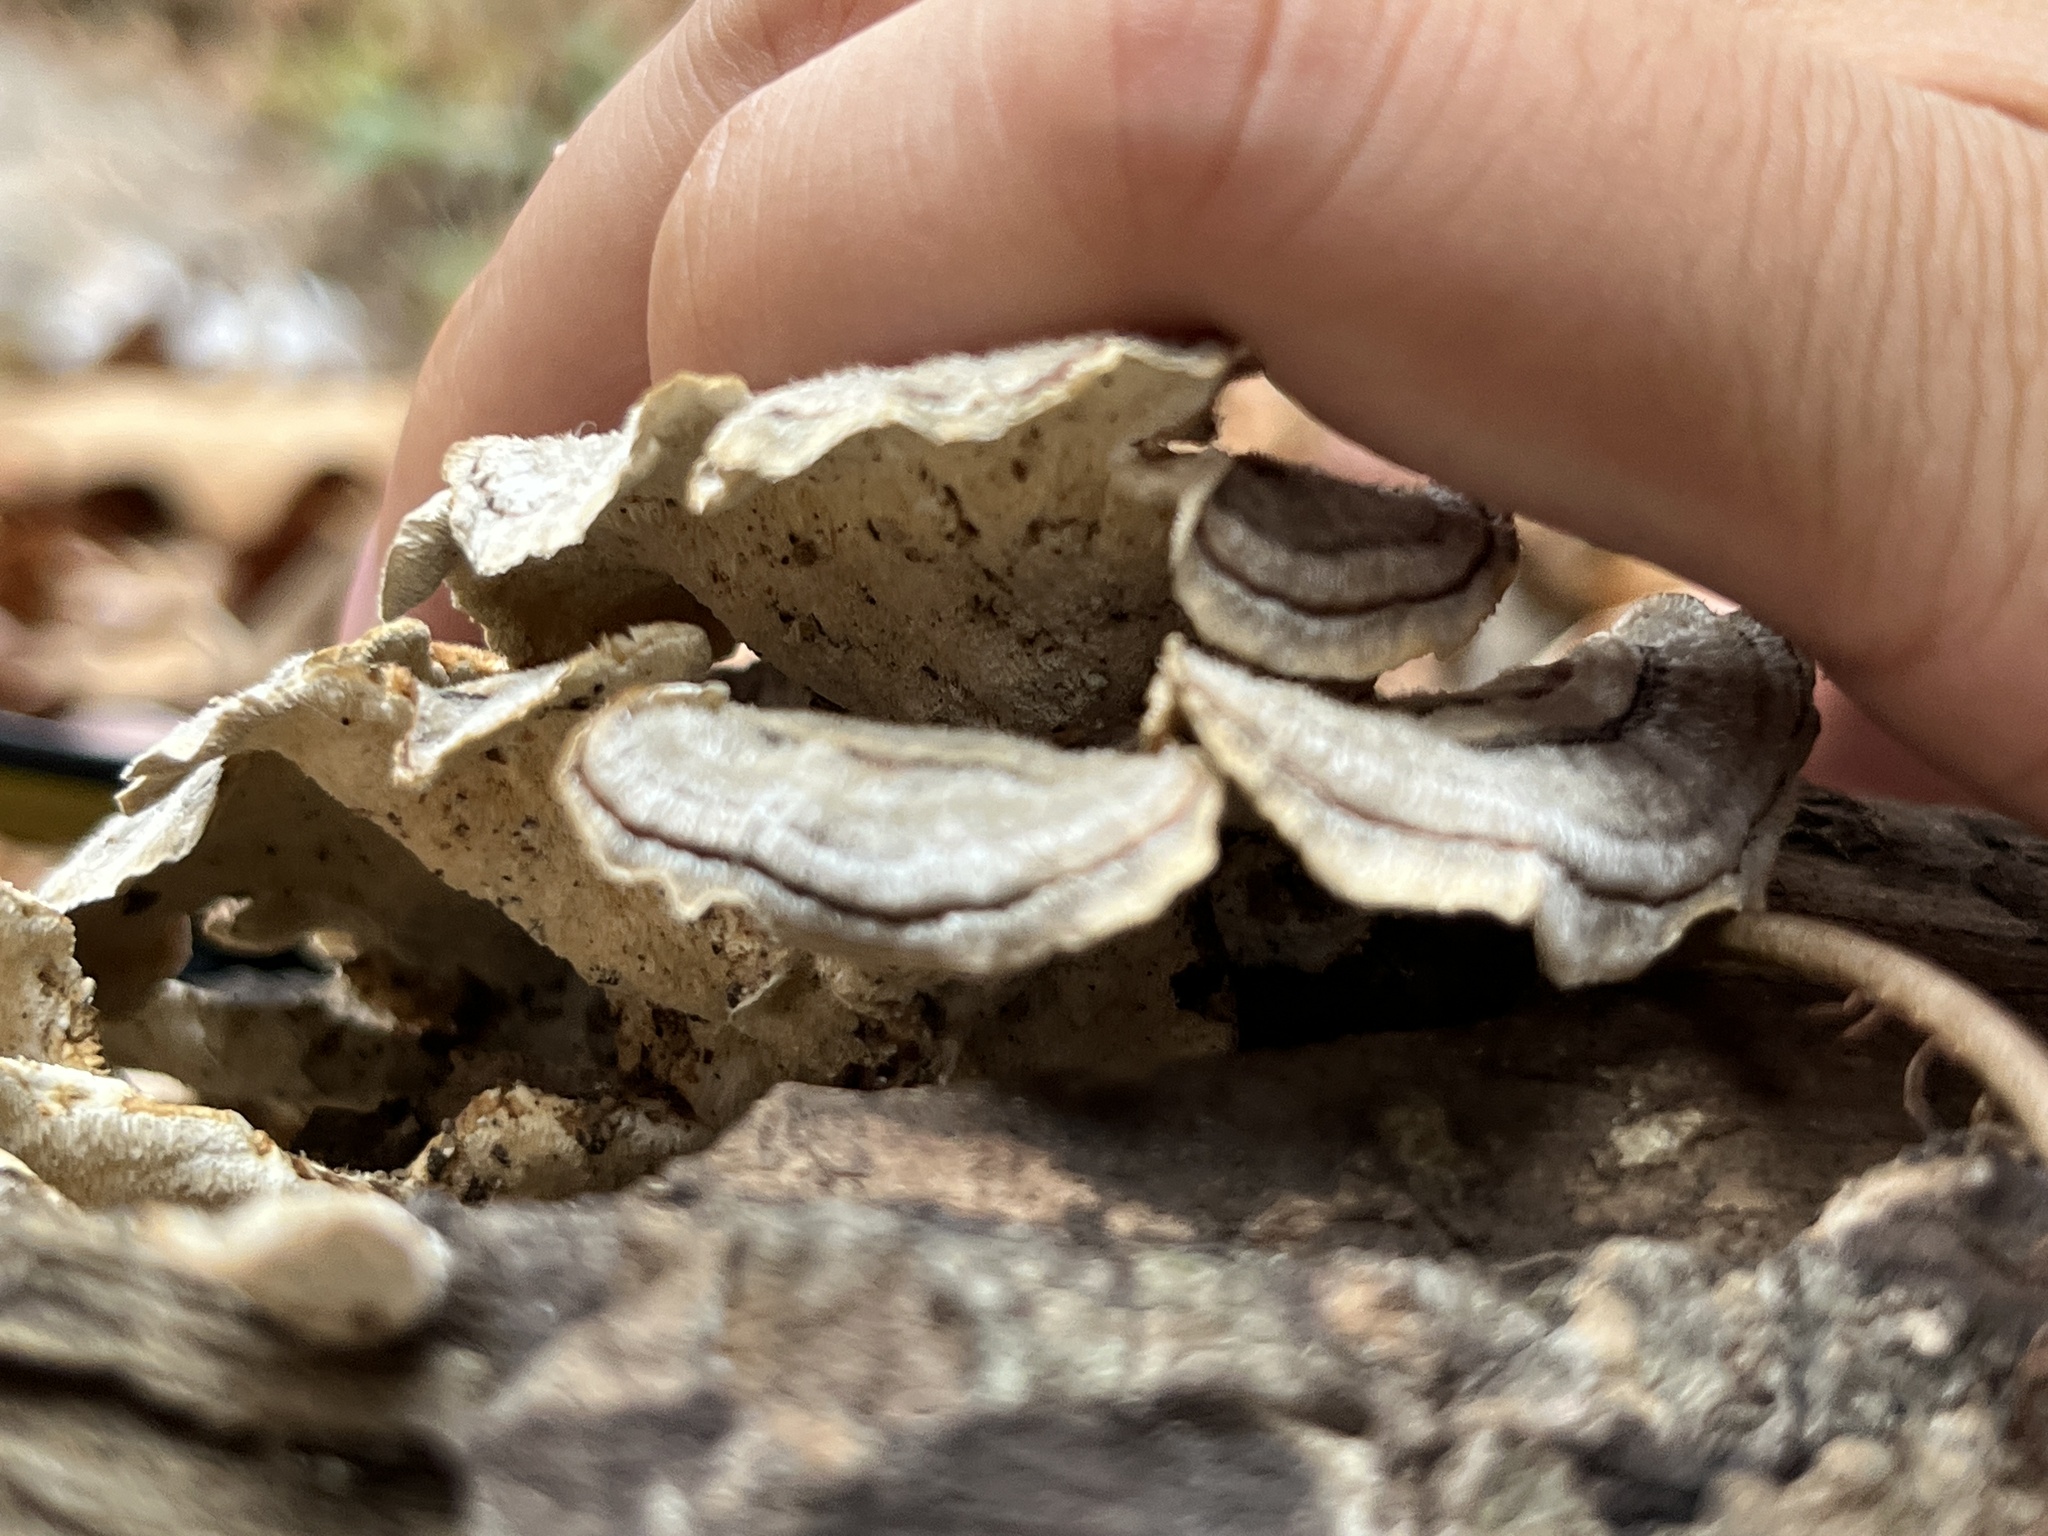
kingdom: Fungi
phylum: Basidiomycota
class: Agaricomycetes
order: Polyporales
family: Polyporaceae
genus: Trametes
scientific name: Trametes versicolor
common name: Turkeytail
